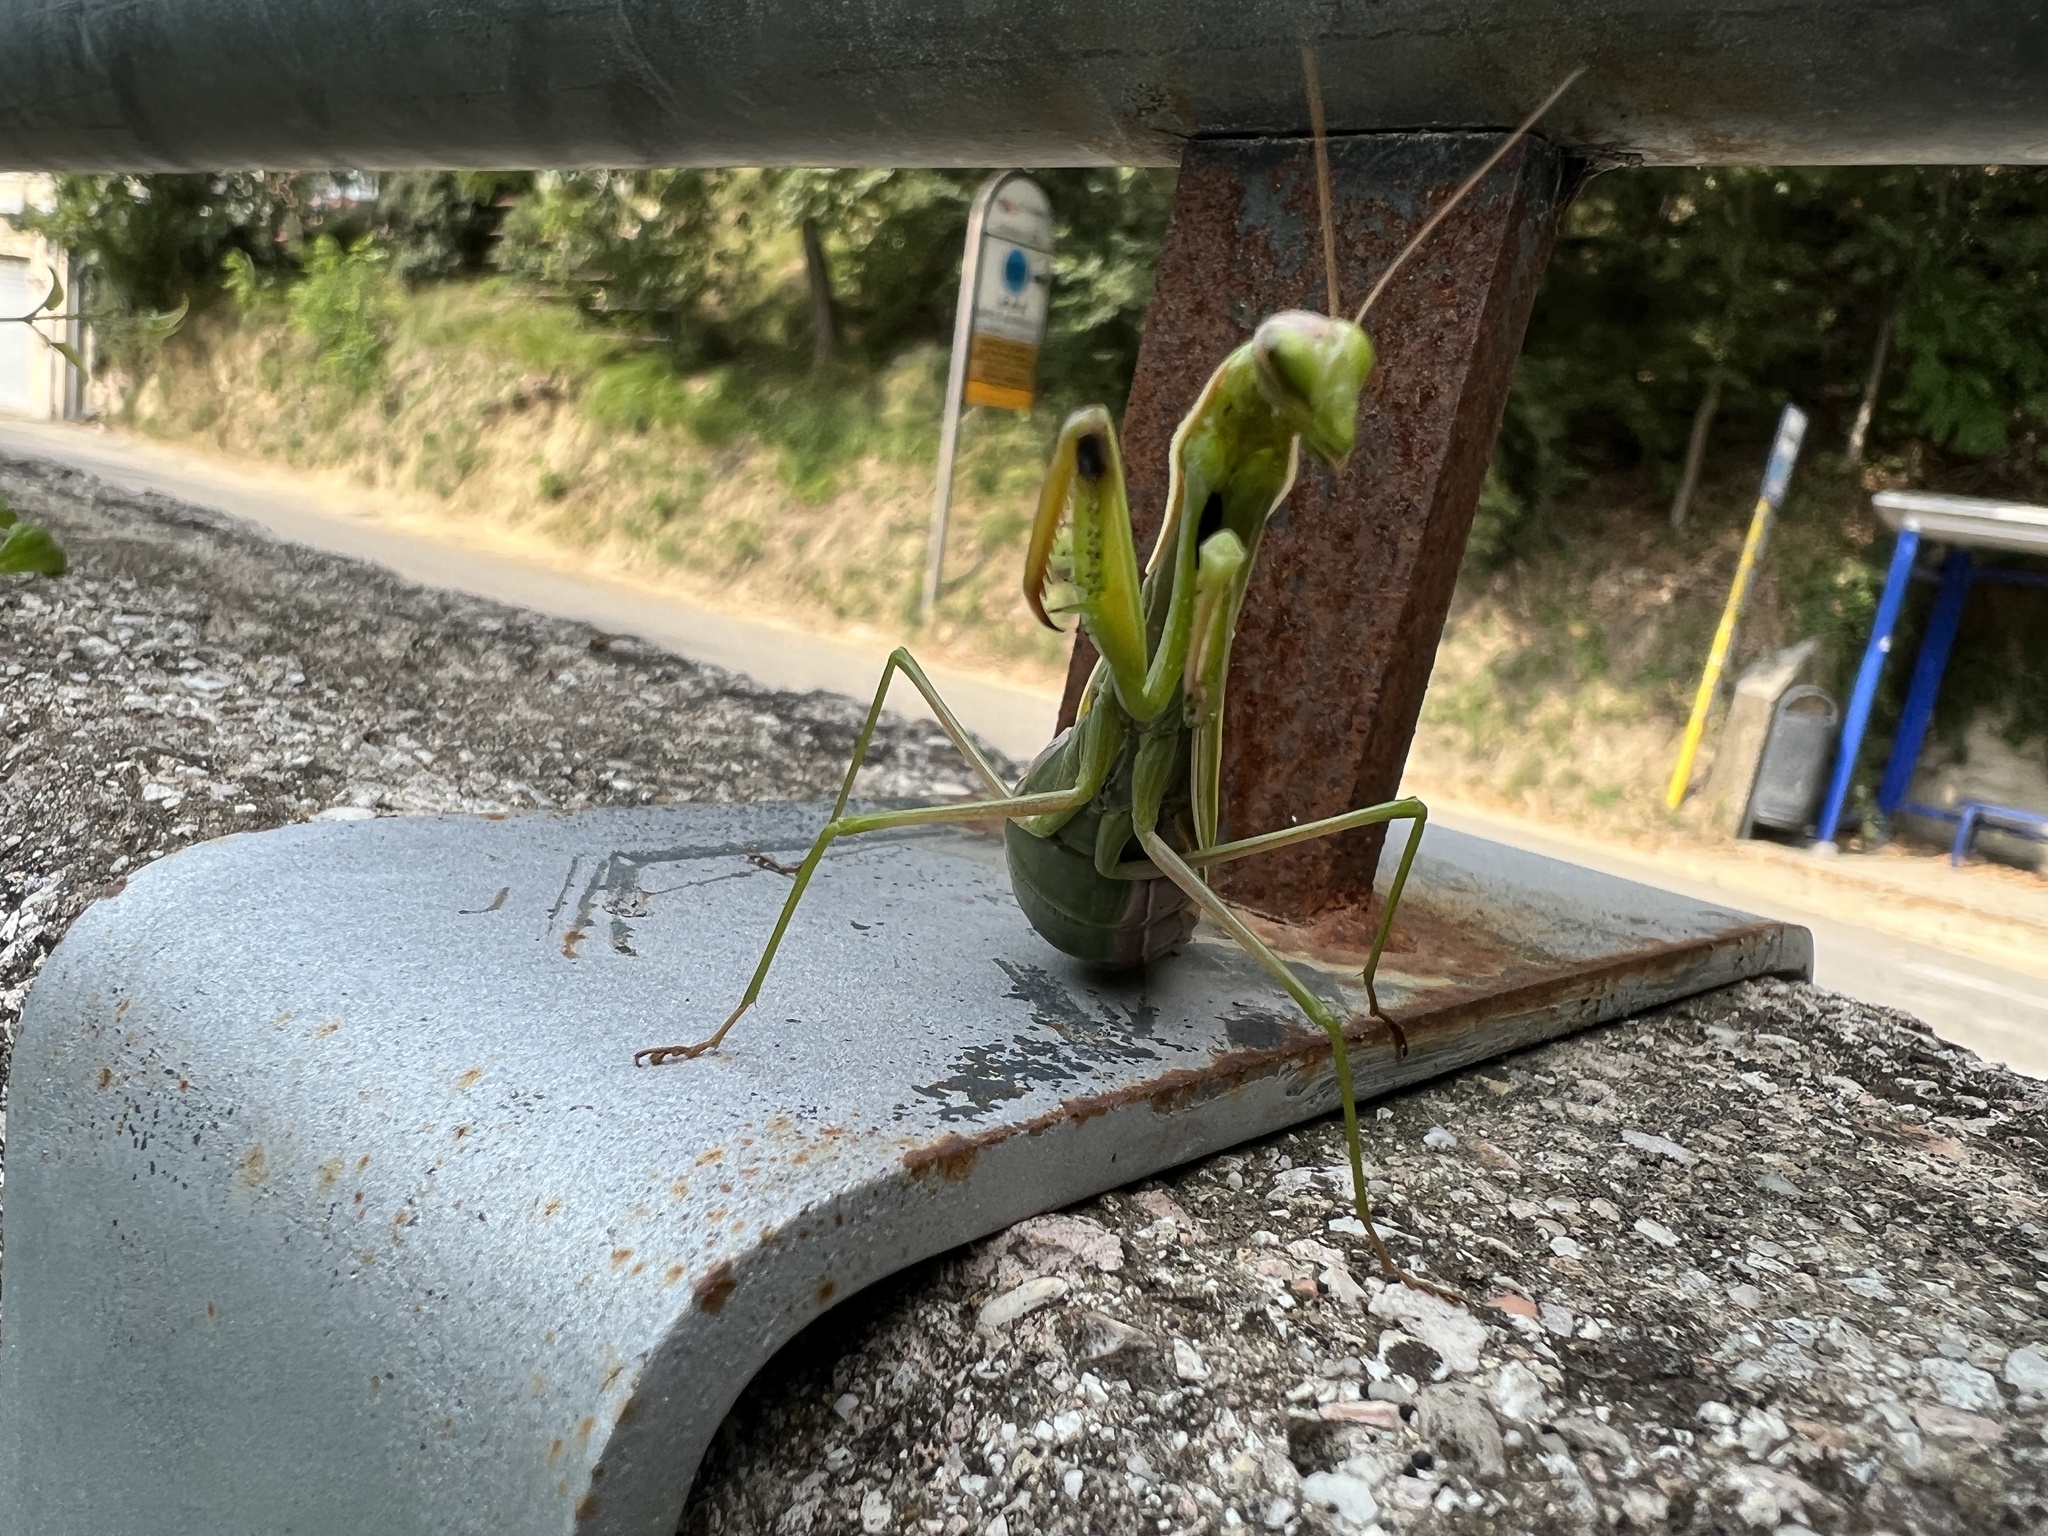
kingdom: Animalia
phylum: Arthropoda
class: Insecta
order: Mantodea
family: Mantidae
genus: Mantis
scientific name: Mantis religiosa
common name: Praying mantis
